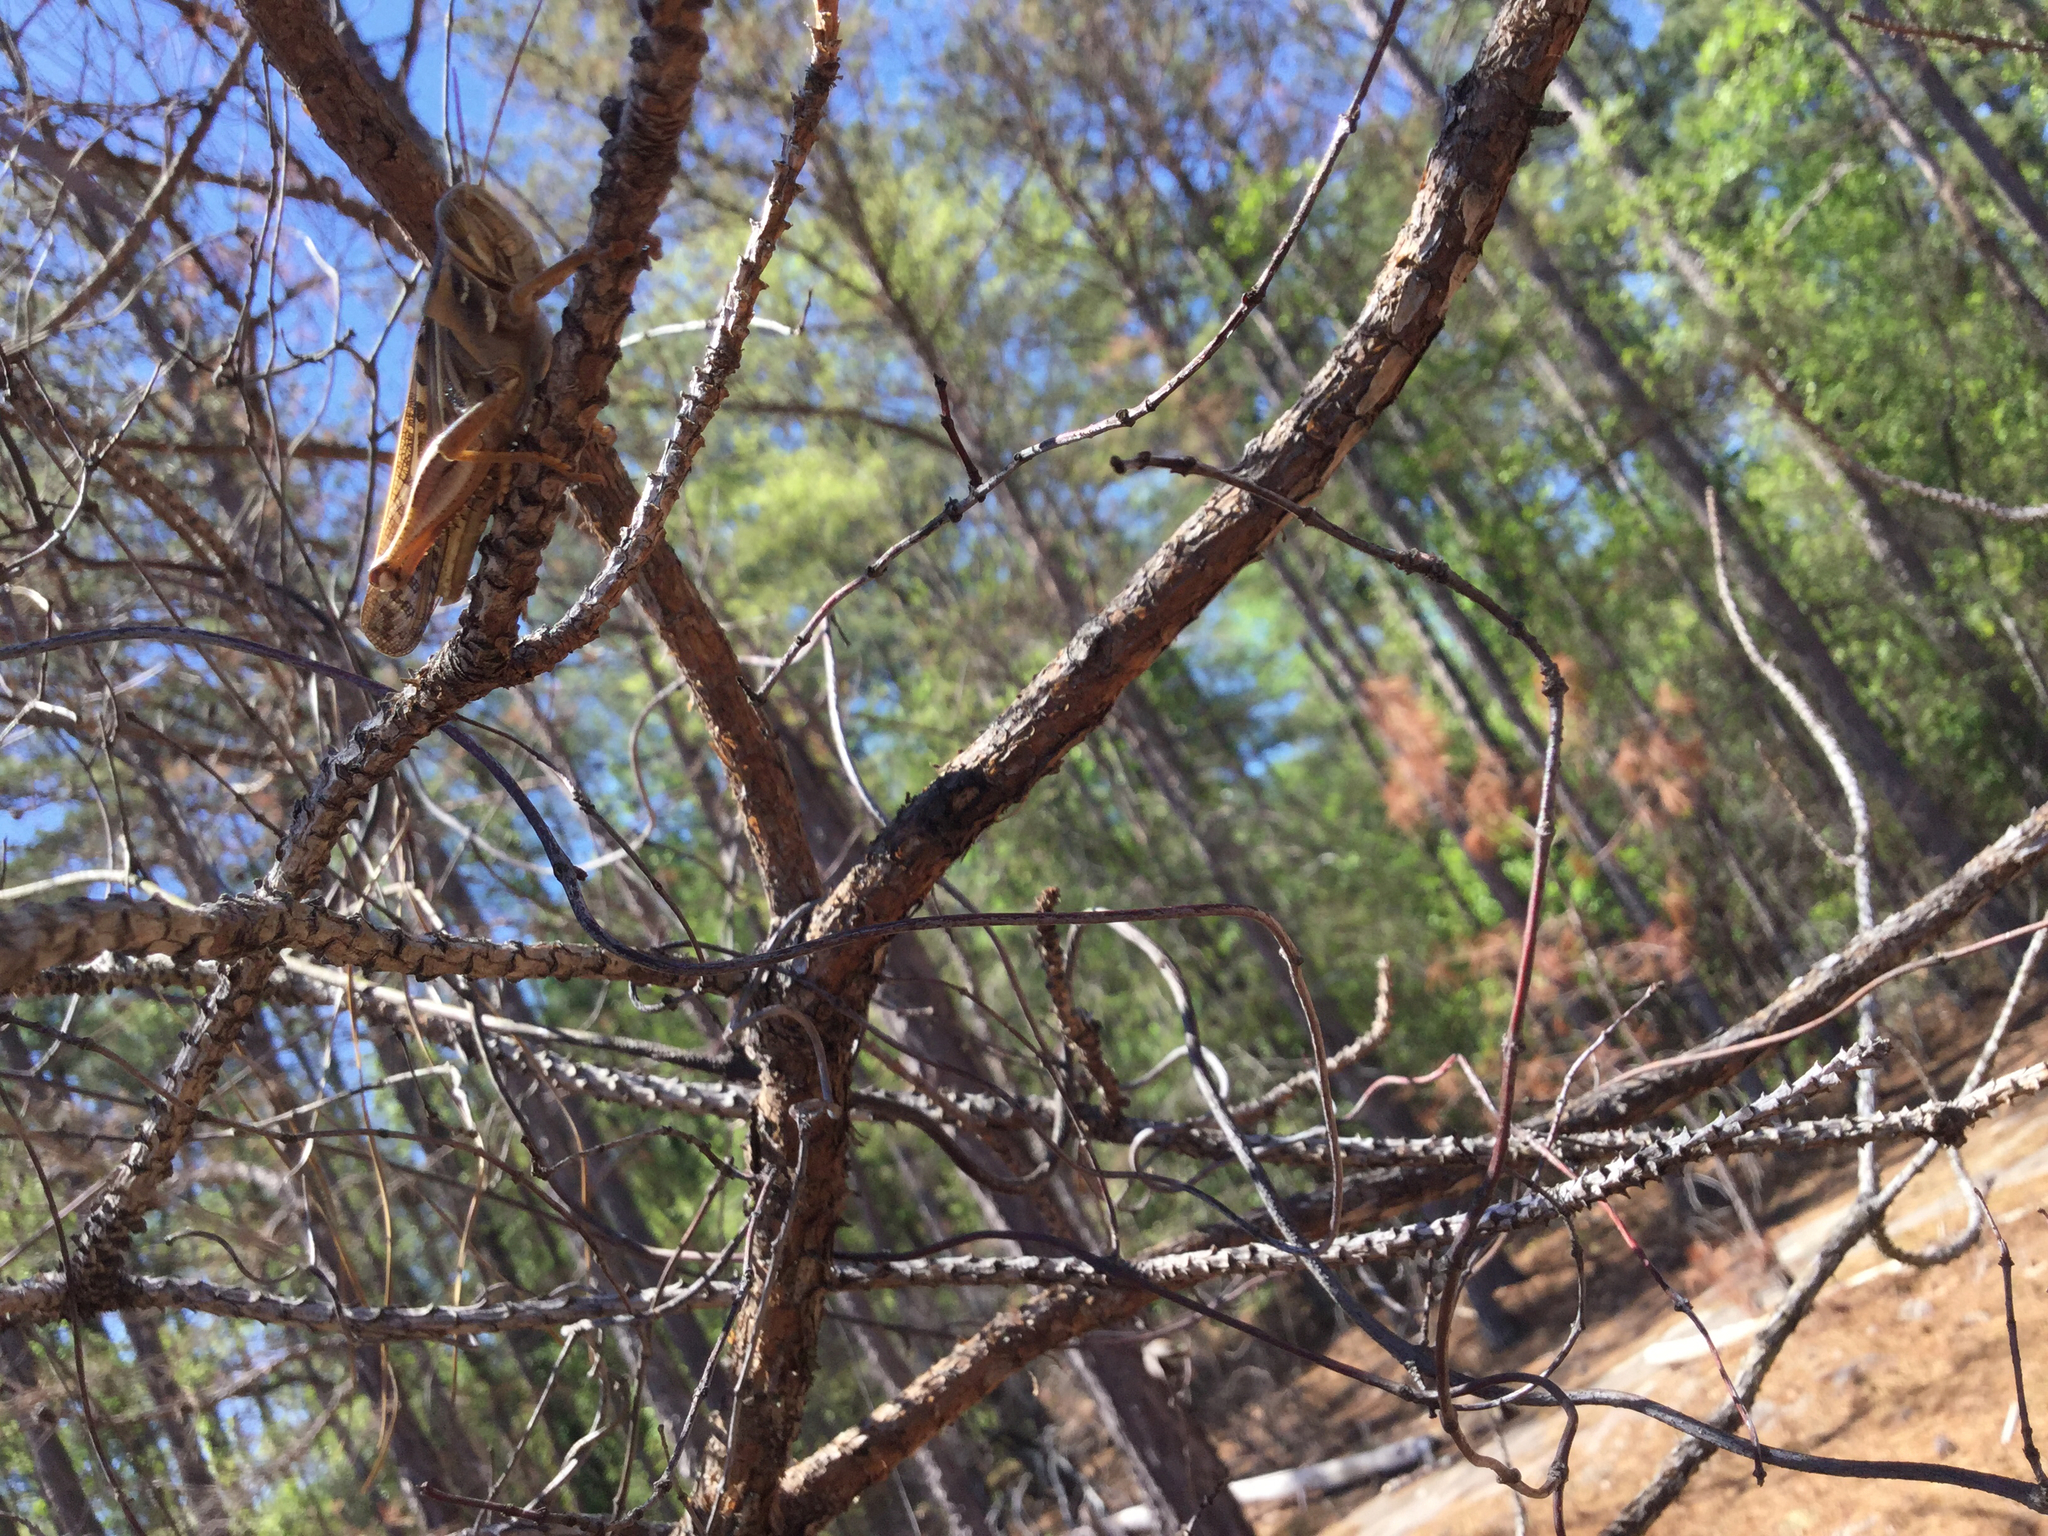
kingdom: Animalia
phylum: Arthropoda
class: Insecta
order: Orthoptera
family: Acrididae
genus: Schistocerca
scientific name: Schistocerca americana
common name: American bird locust
